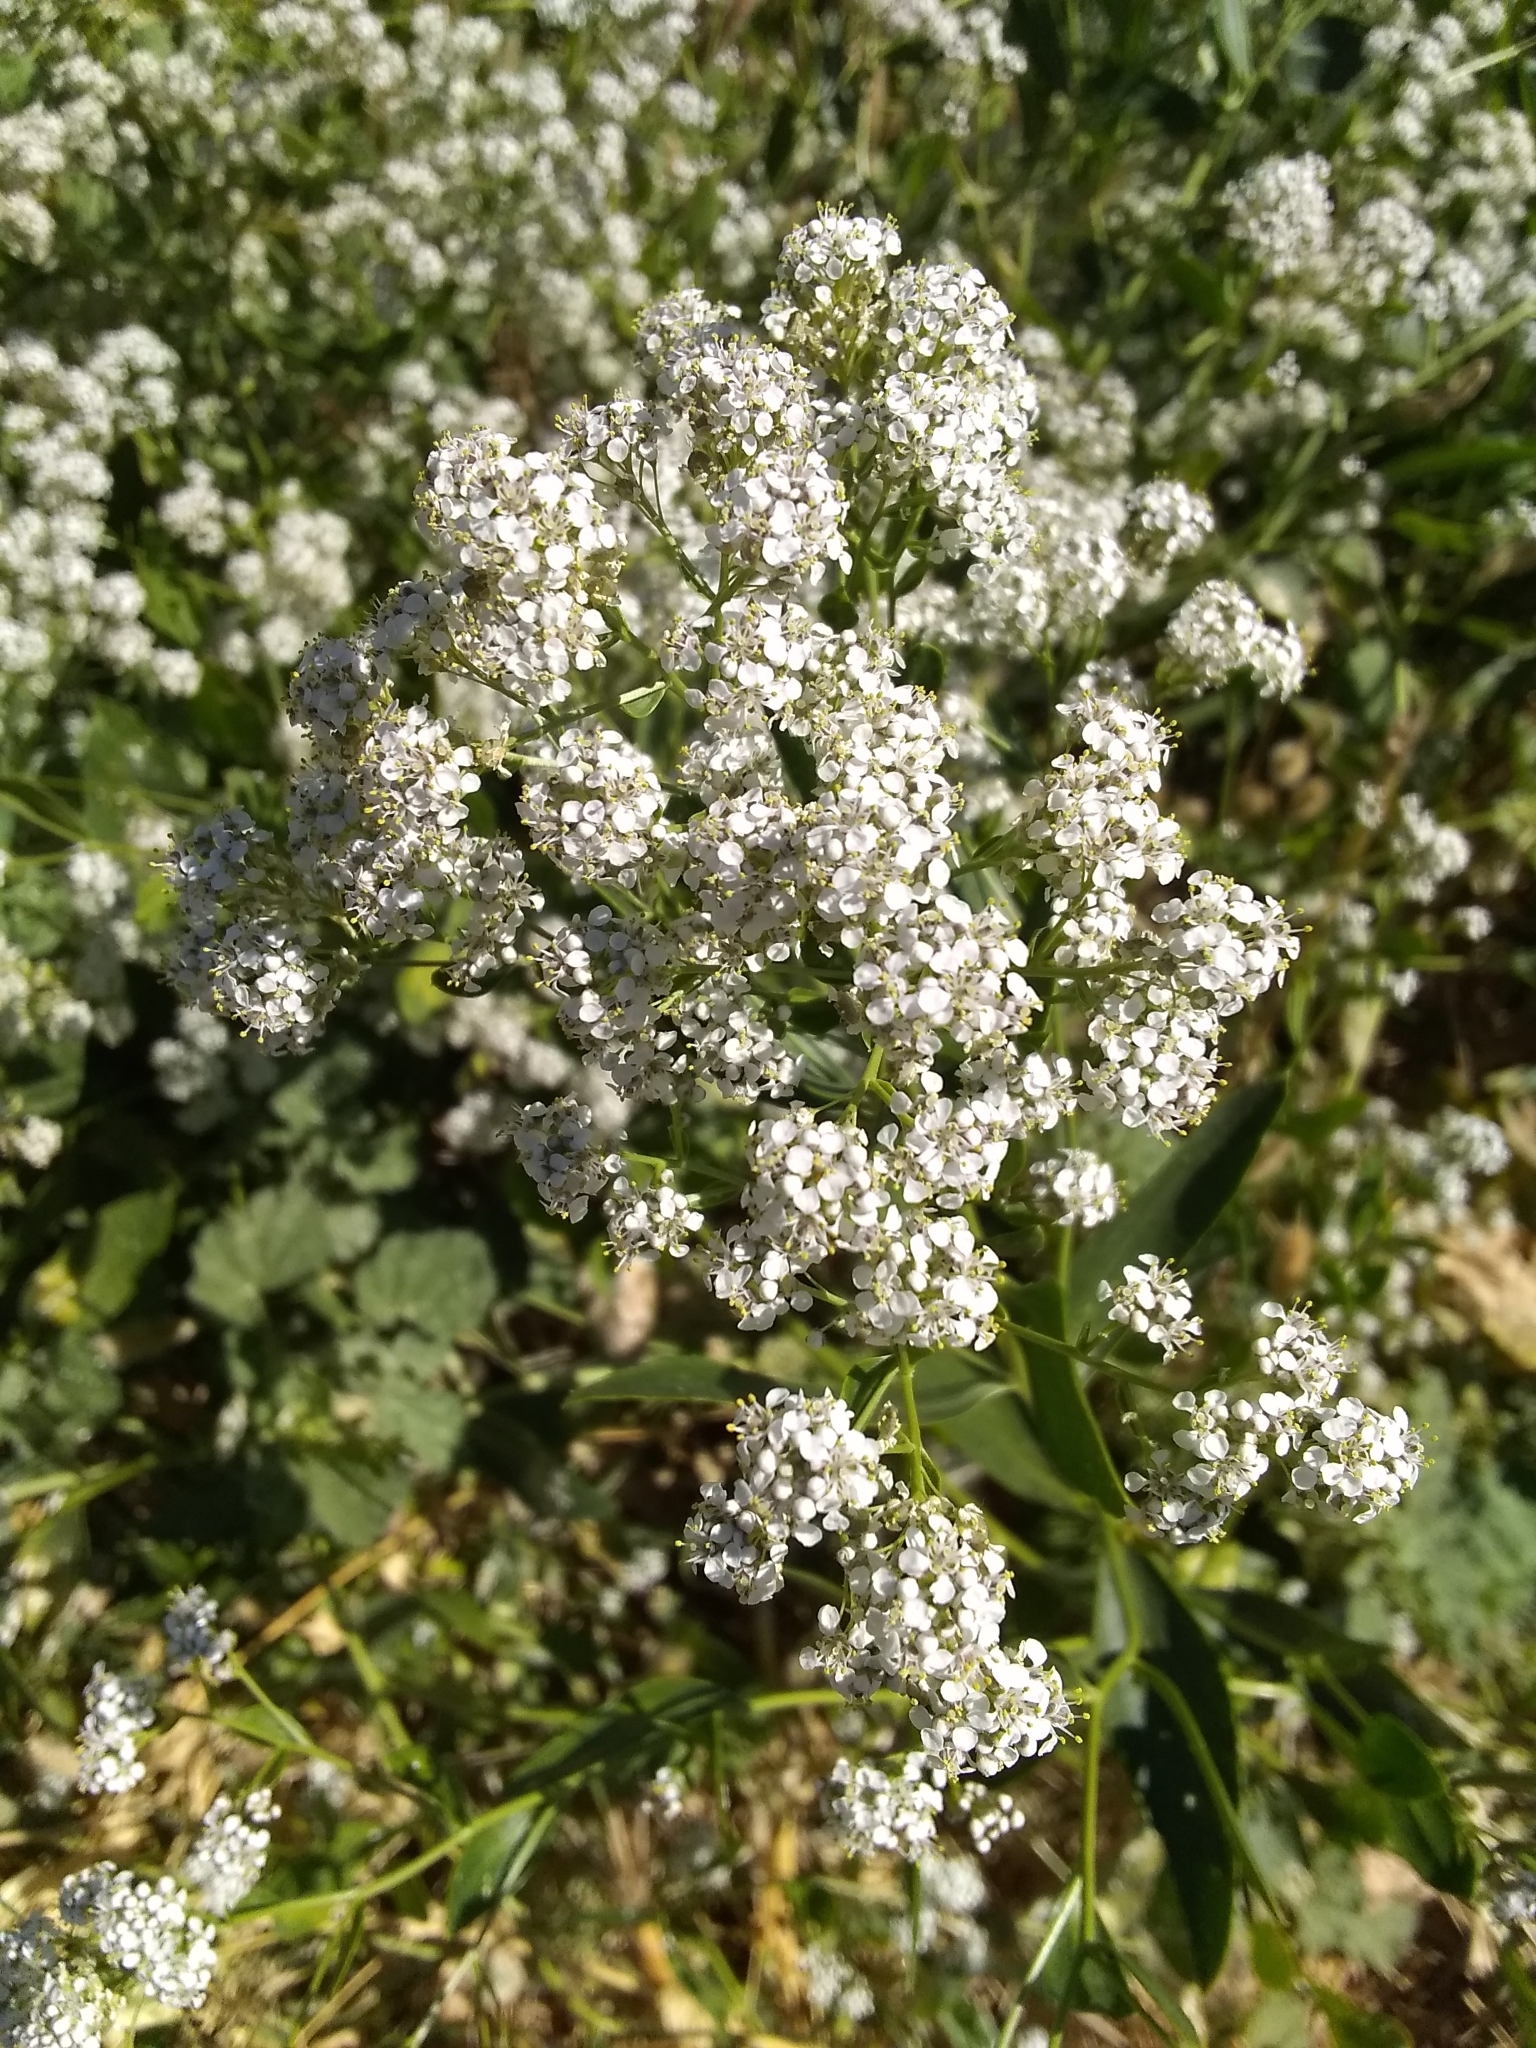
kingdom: Plantae
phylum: Tracheophyta
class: Magnoliopsida
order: Brassicales
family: Brassicaceae
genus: Lepidium
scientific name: Lepidium latifolium
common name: Dittander
